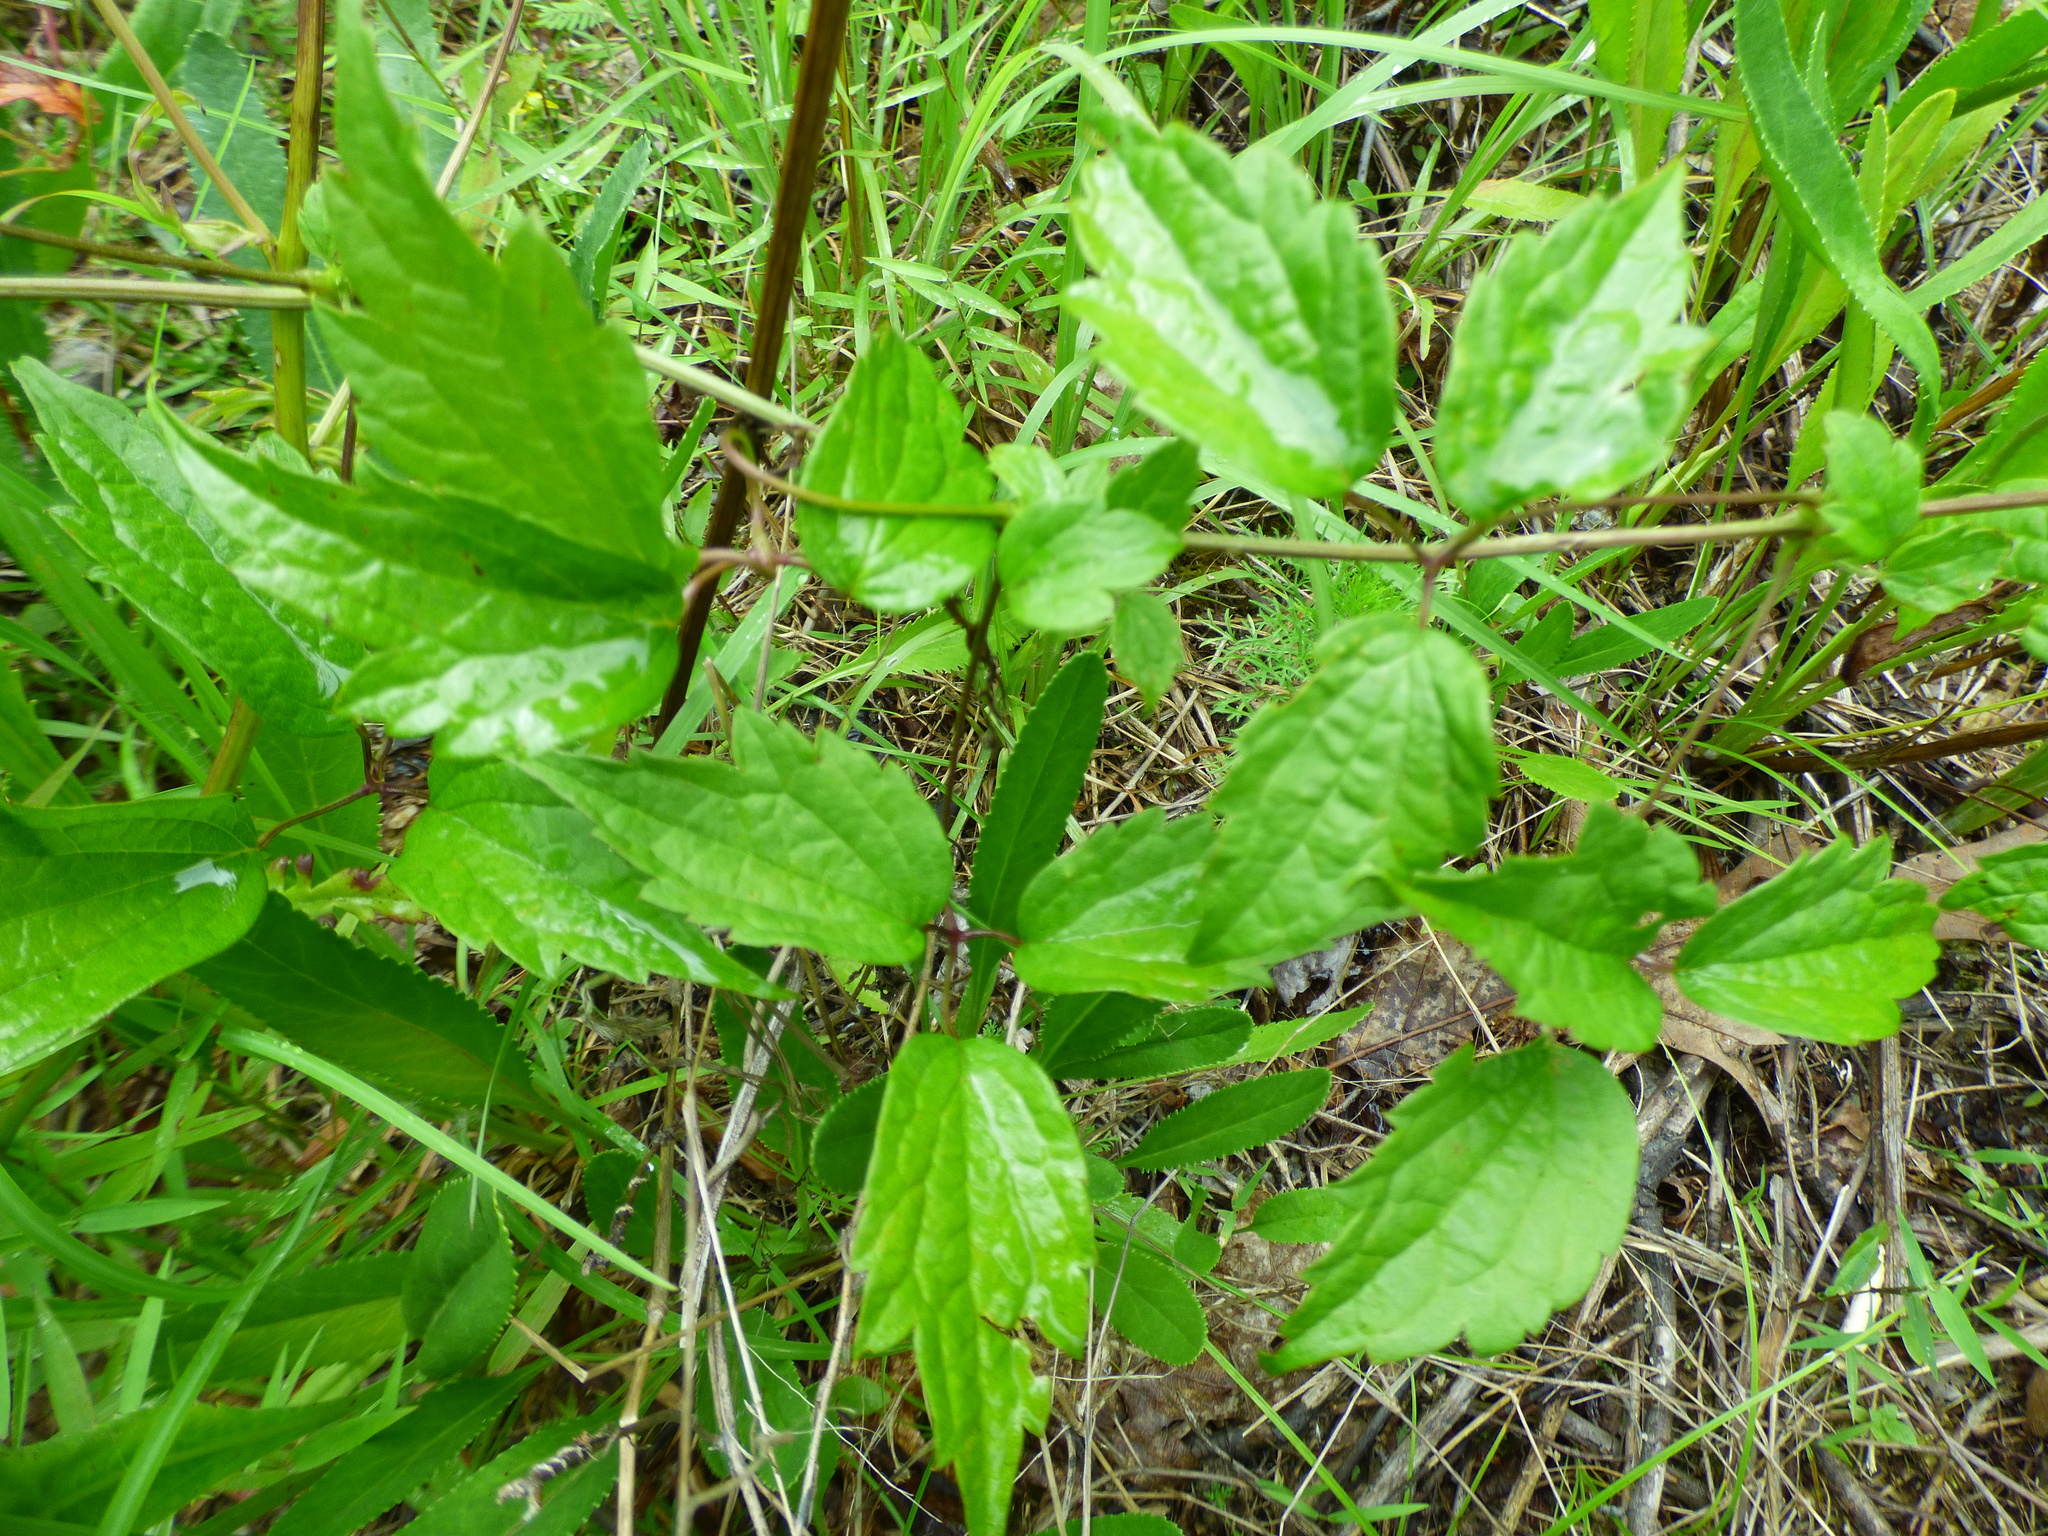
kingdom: Plantae
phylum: Tracheophyta
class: Magnoliopsida
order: Ranunculales
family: Ranunculaceae
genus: Clematis
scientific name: Clematis virginiana
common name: Virgin's-bower
